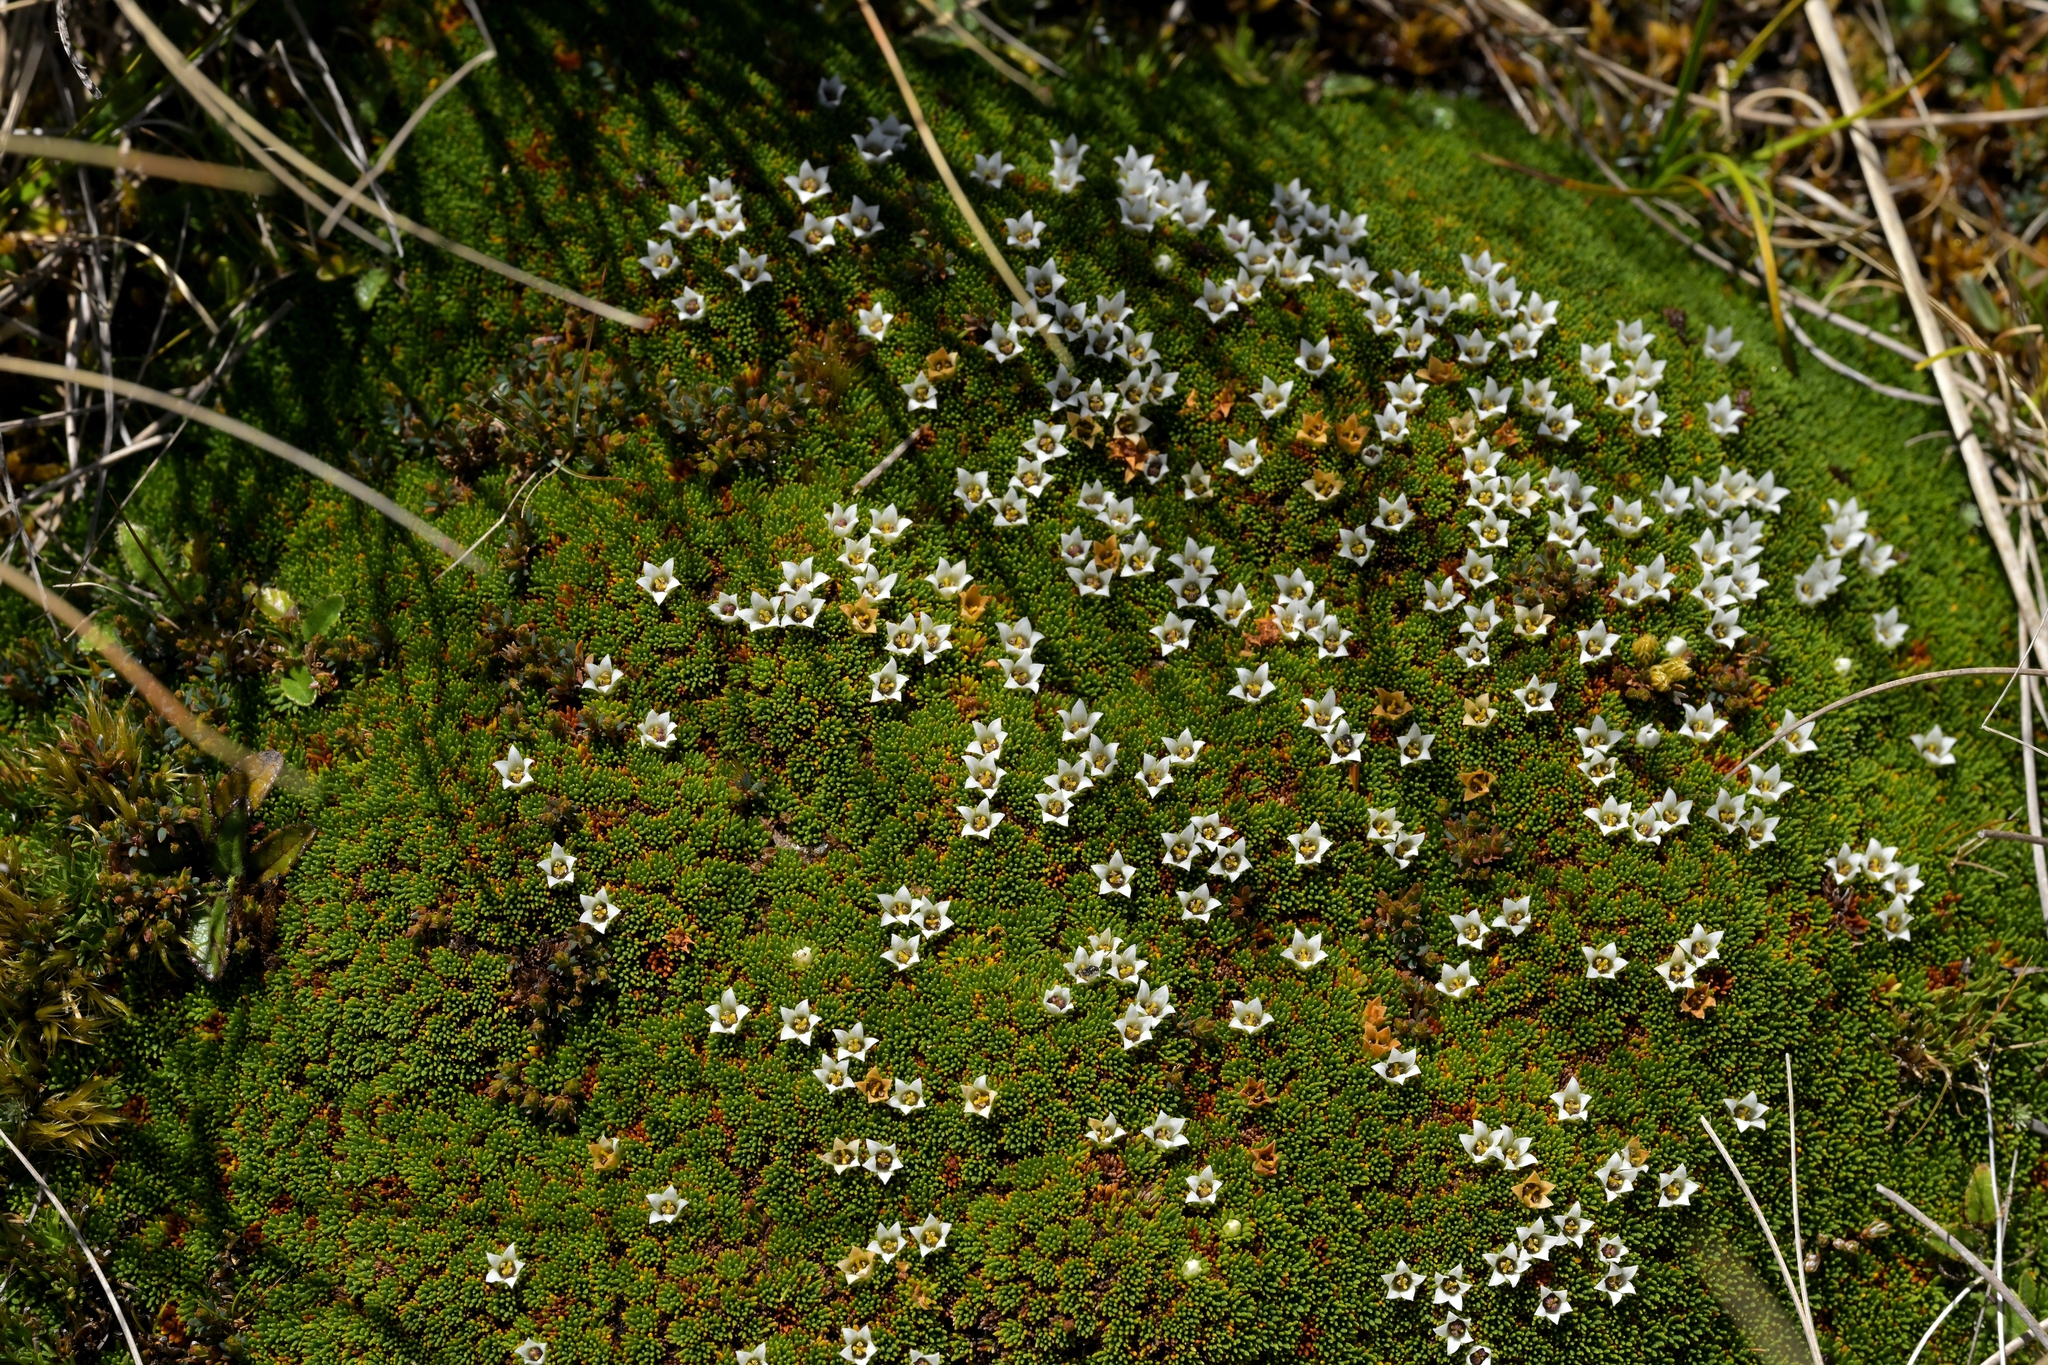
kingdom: Plantae
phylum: Tracheophyta
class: Magnoliopsida
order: Asterales
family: Stylidiaceae
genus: Donatia
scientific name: Donatia novae-zelandiae
